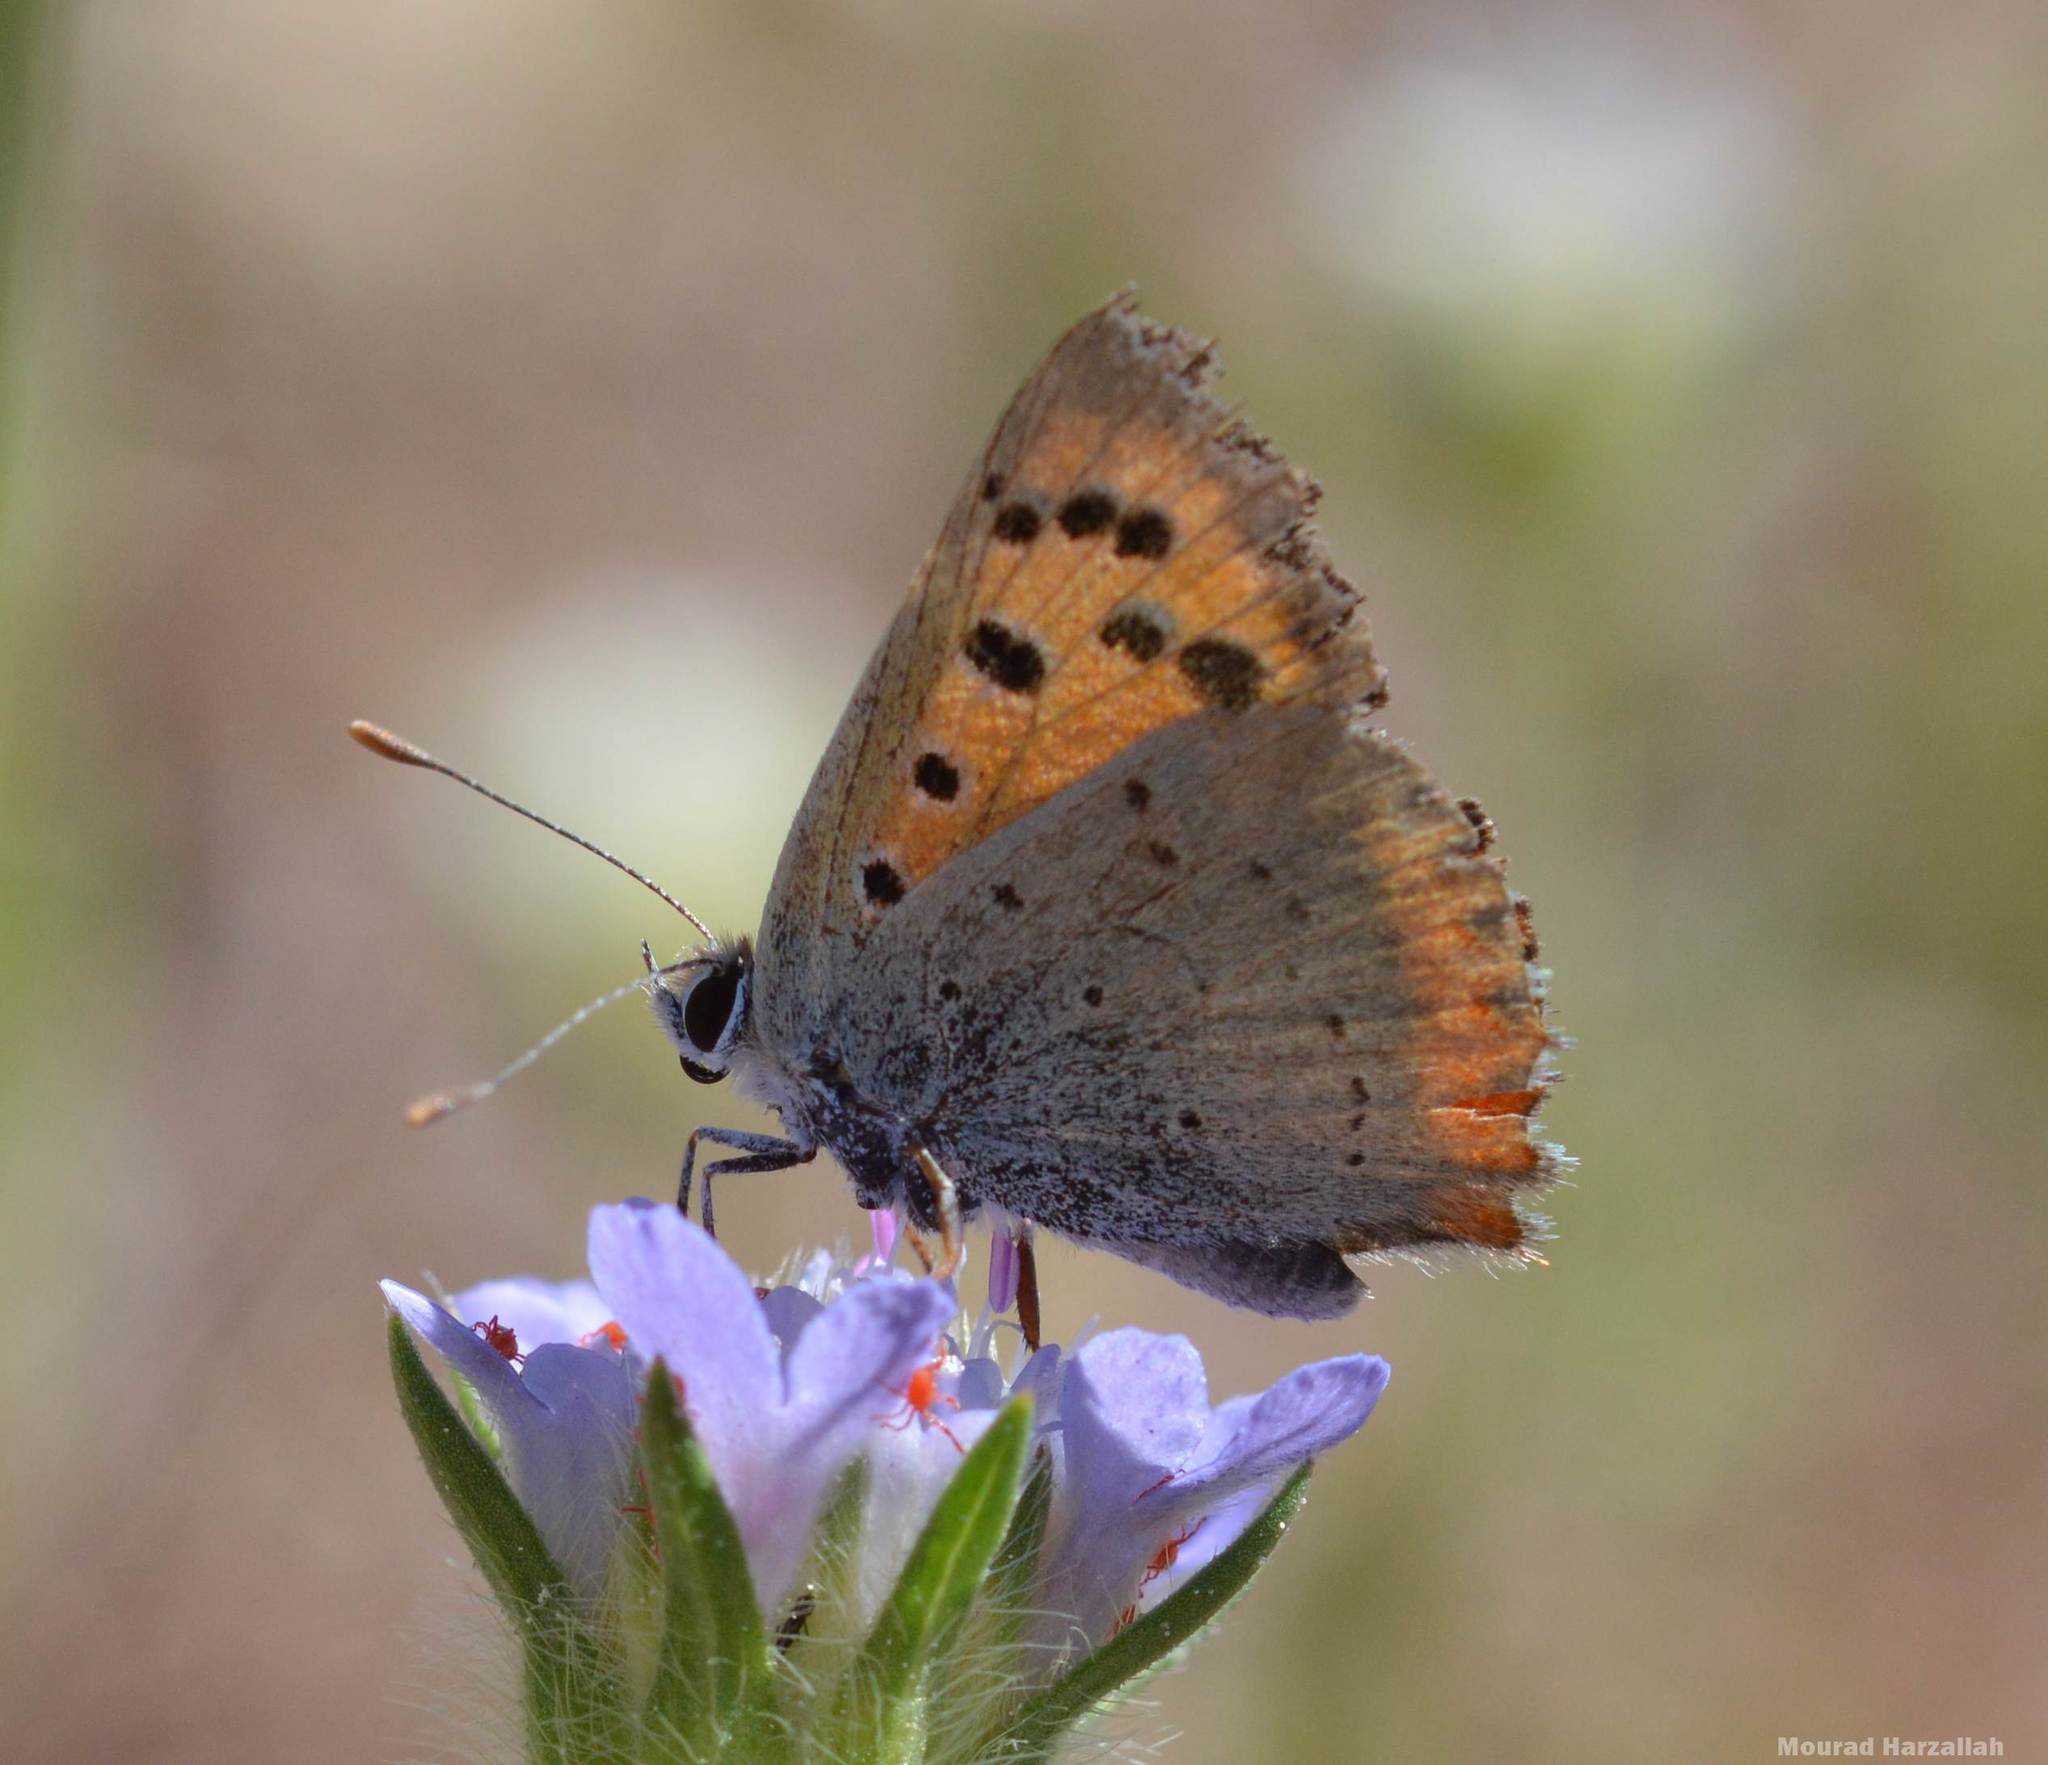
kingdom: Animalia
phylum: Arthropoda
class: Insecta
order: Lepidoptera
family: Lycaenidae
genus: Lycaena
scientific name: Lycaena phlaeas
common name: Small copper
